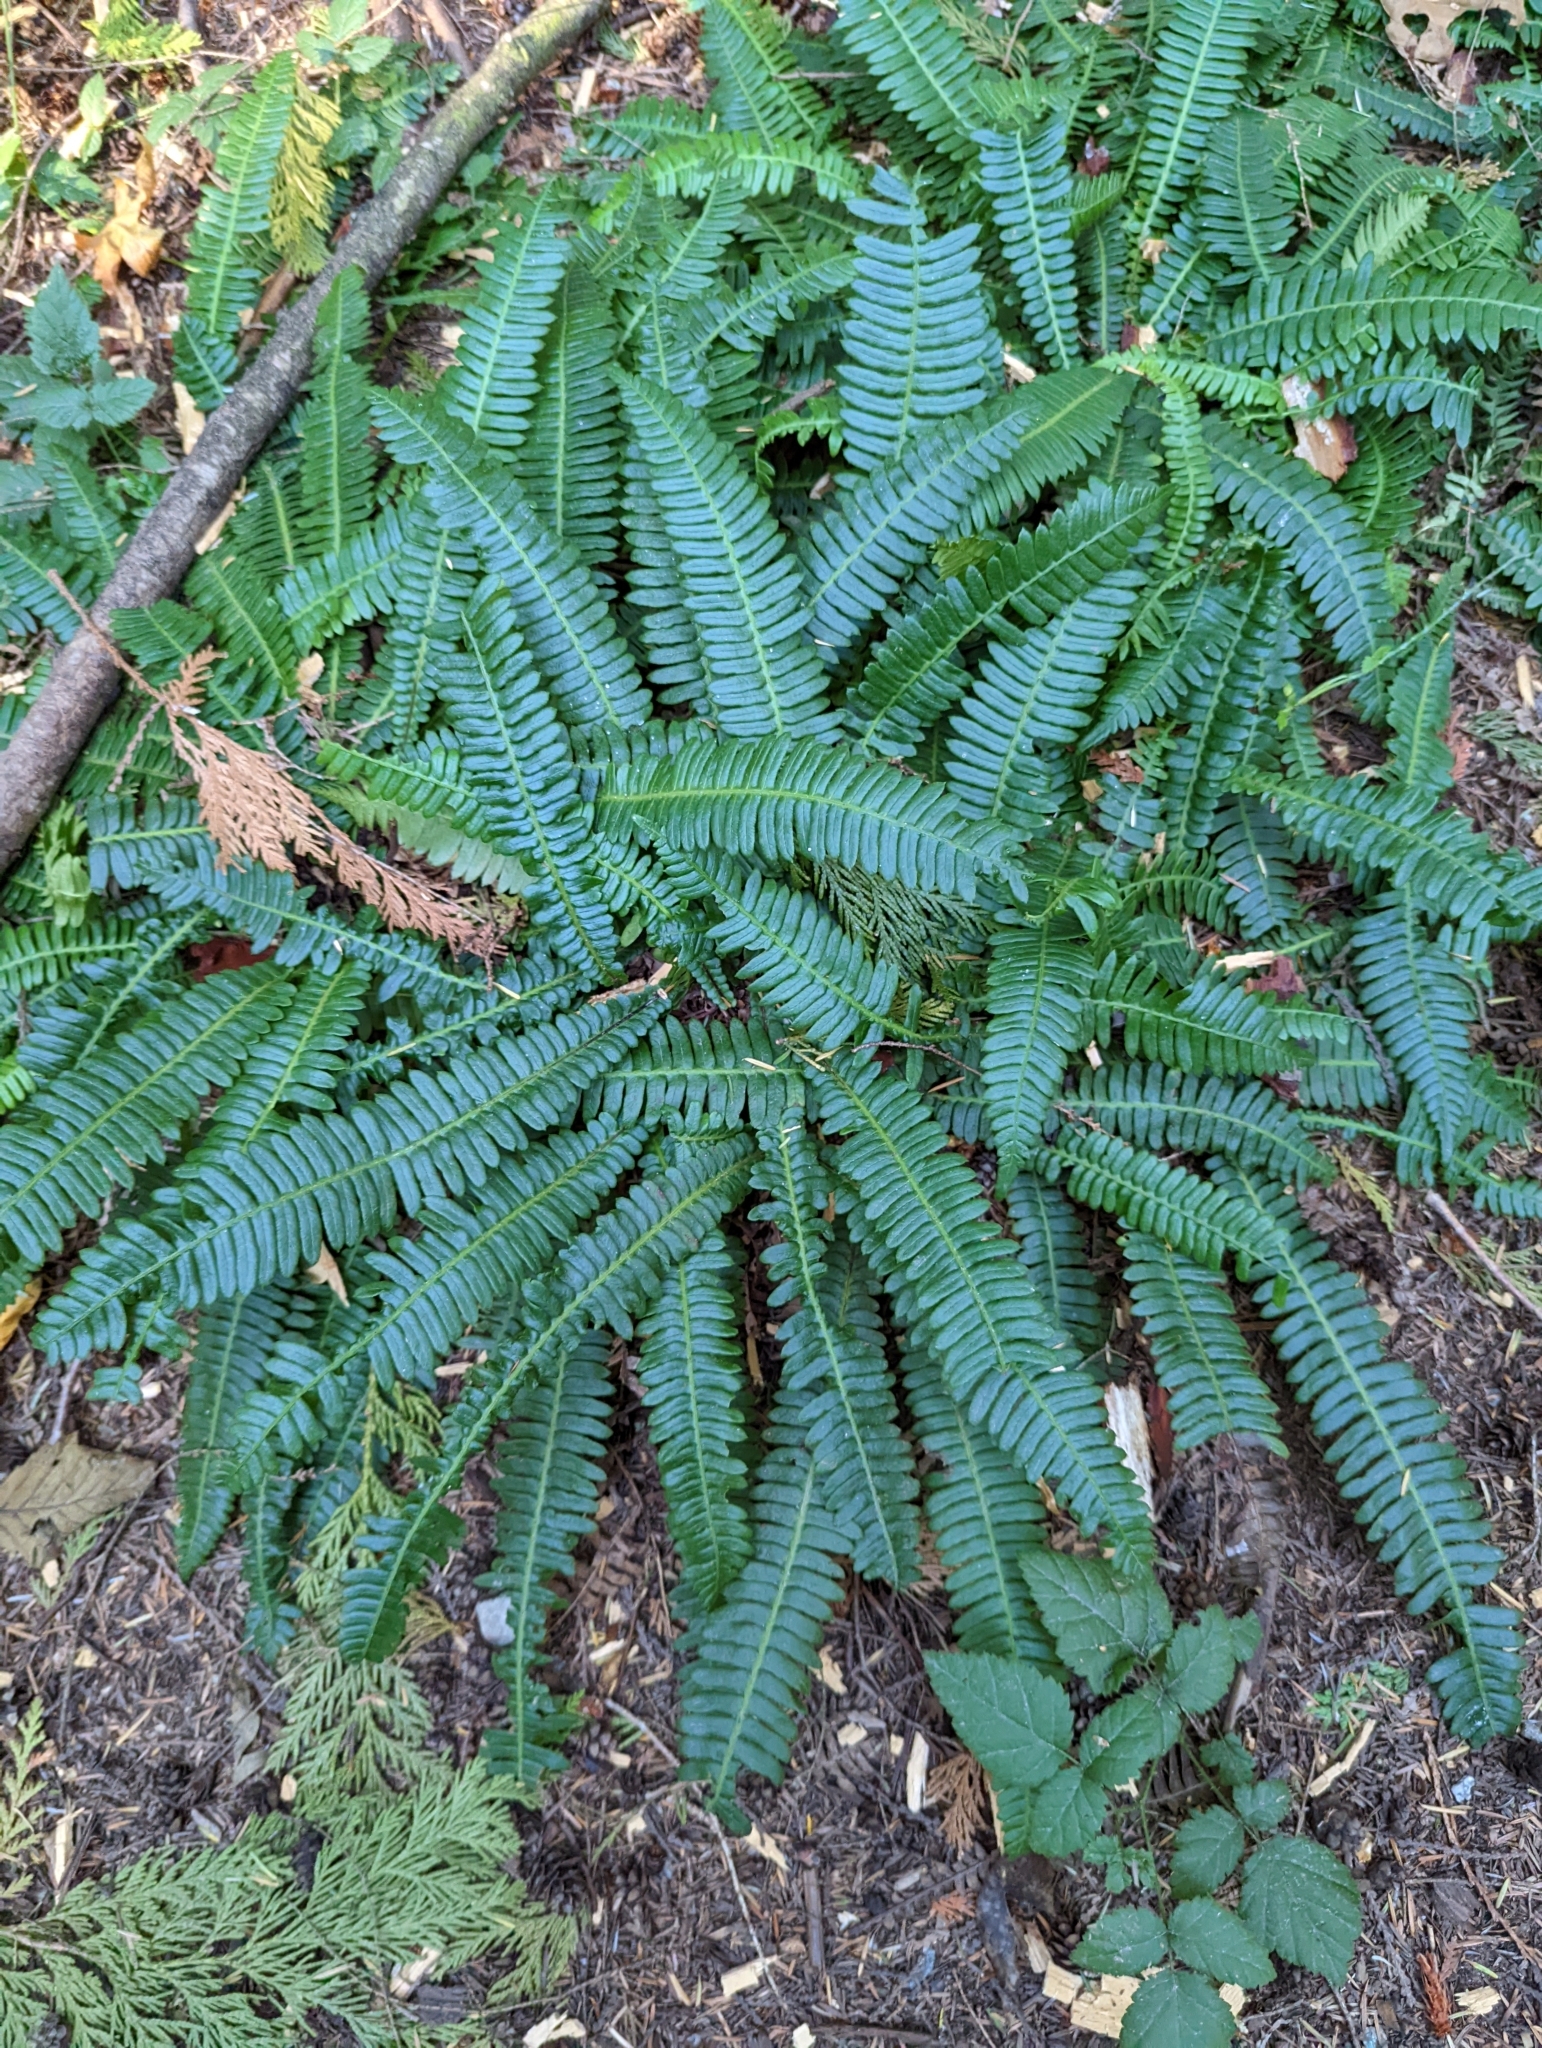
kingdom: Plantae
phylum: Tracheophyta
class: Polypodiopsida
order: Polypodiales
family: Blechnaceae
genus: Struthiopteris
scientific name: Struthiopteris spicant
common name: Deer fern
